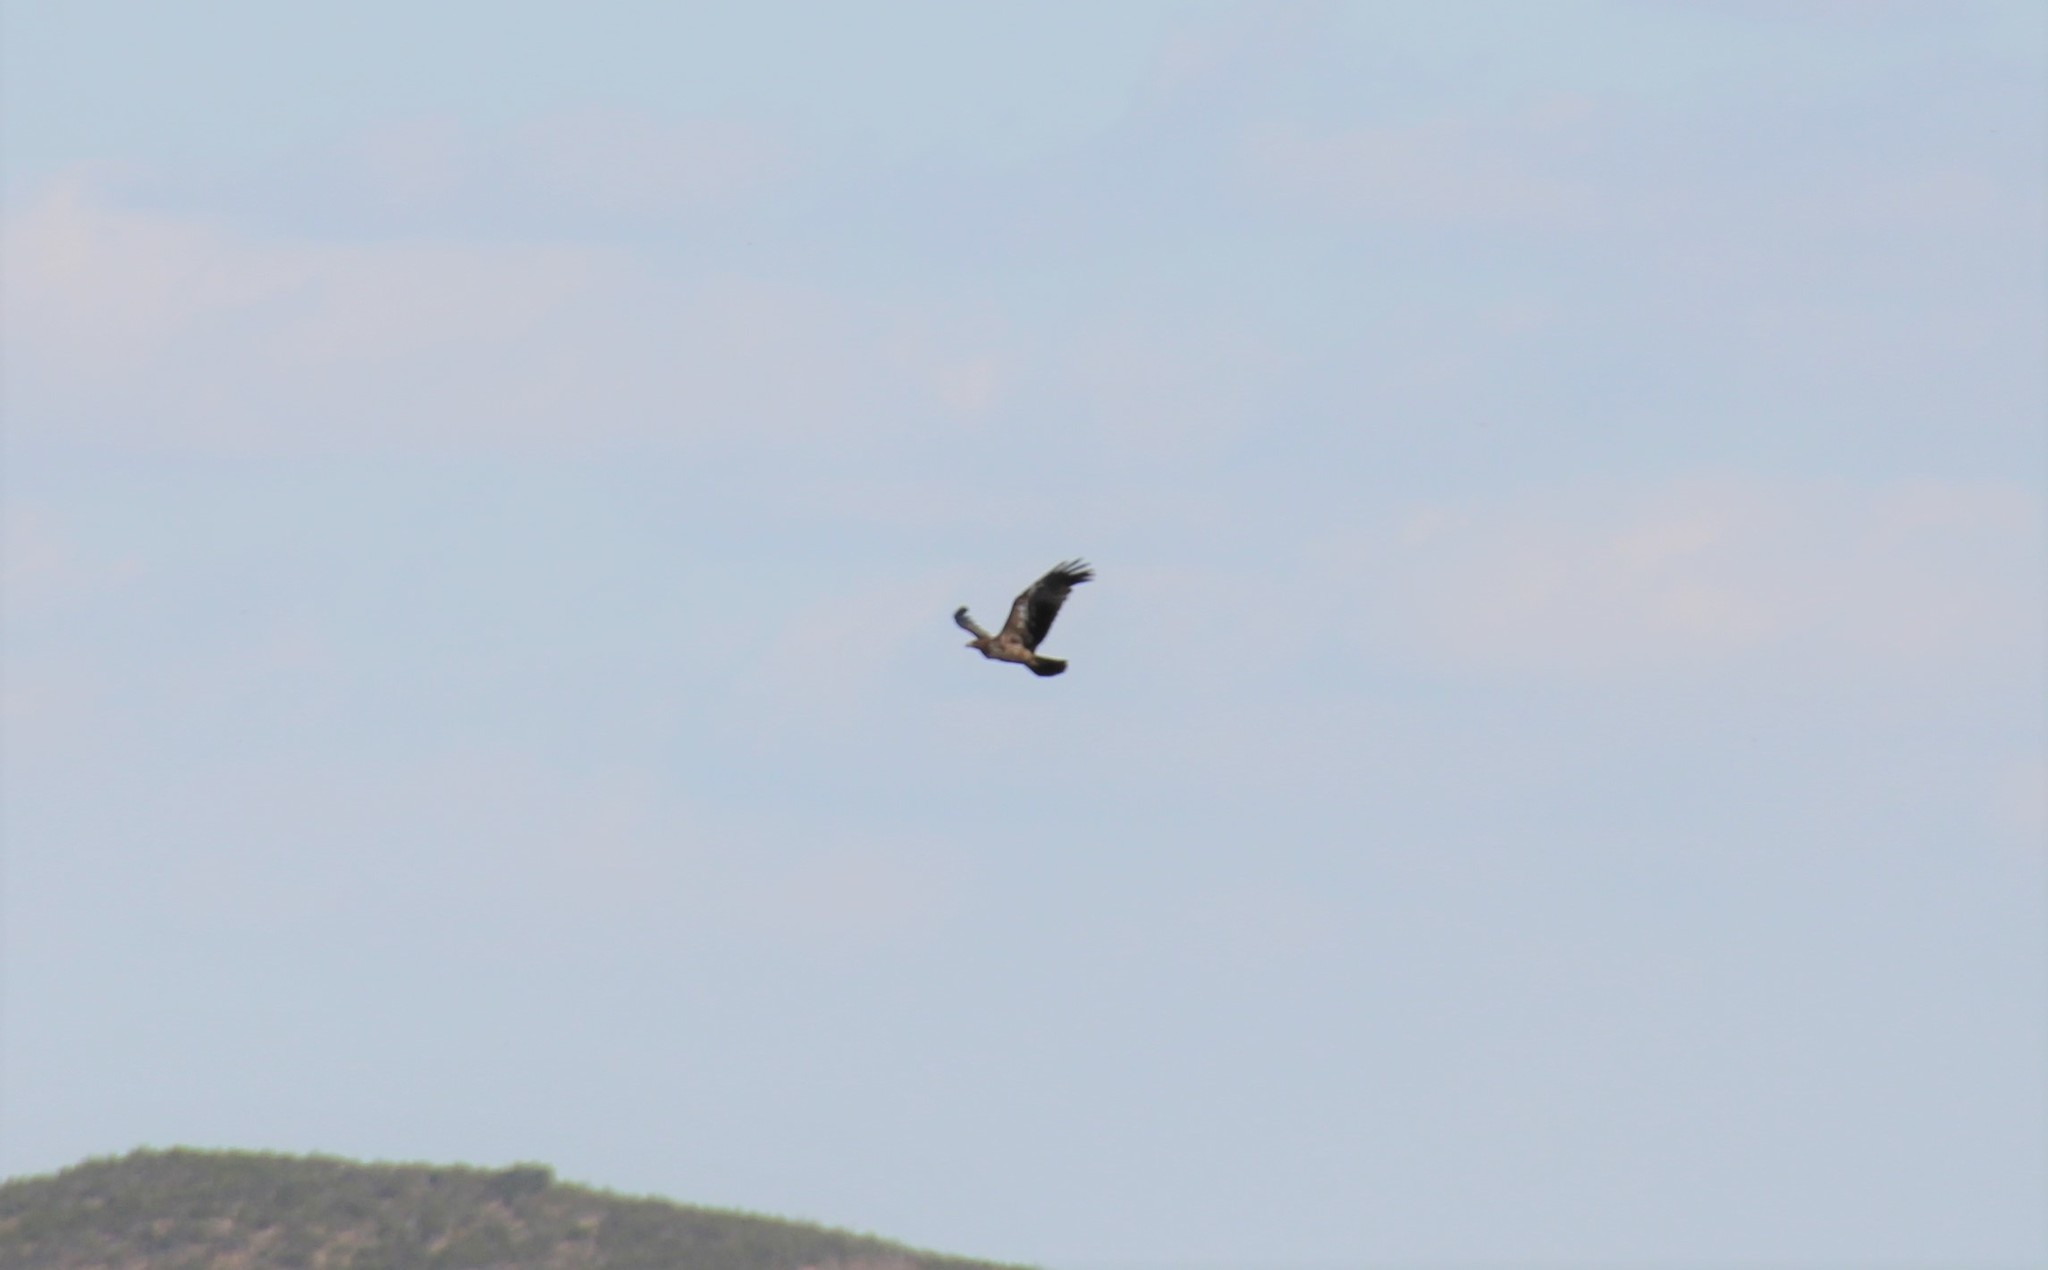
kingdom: Animalia
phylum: Chordata
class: Aves
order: Accipitriformes
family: Accipitridae
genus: Aquila
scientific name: Aquila adalberti
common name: Spanish imperial eagle
